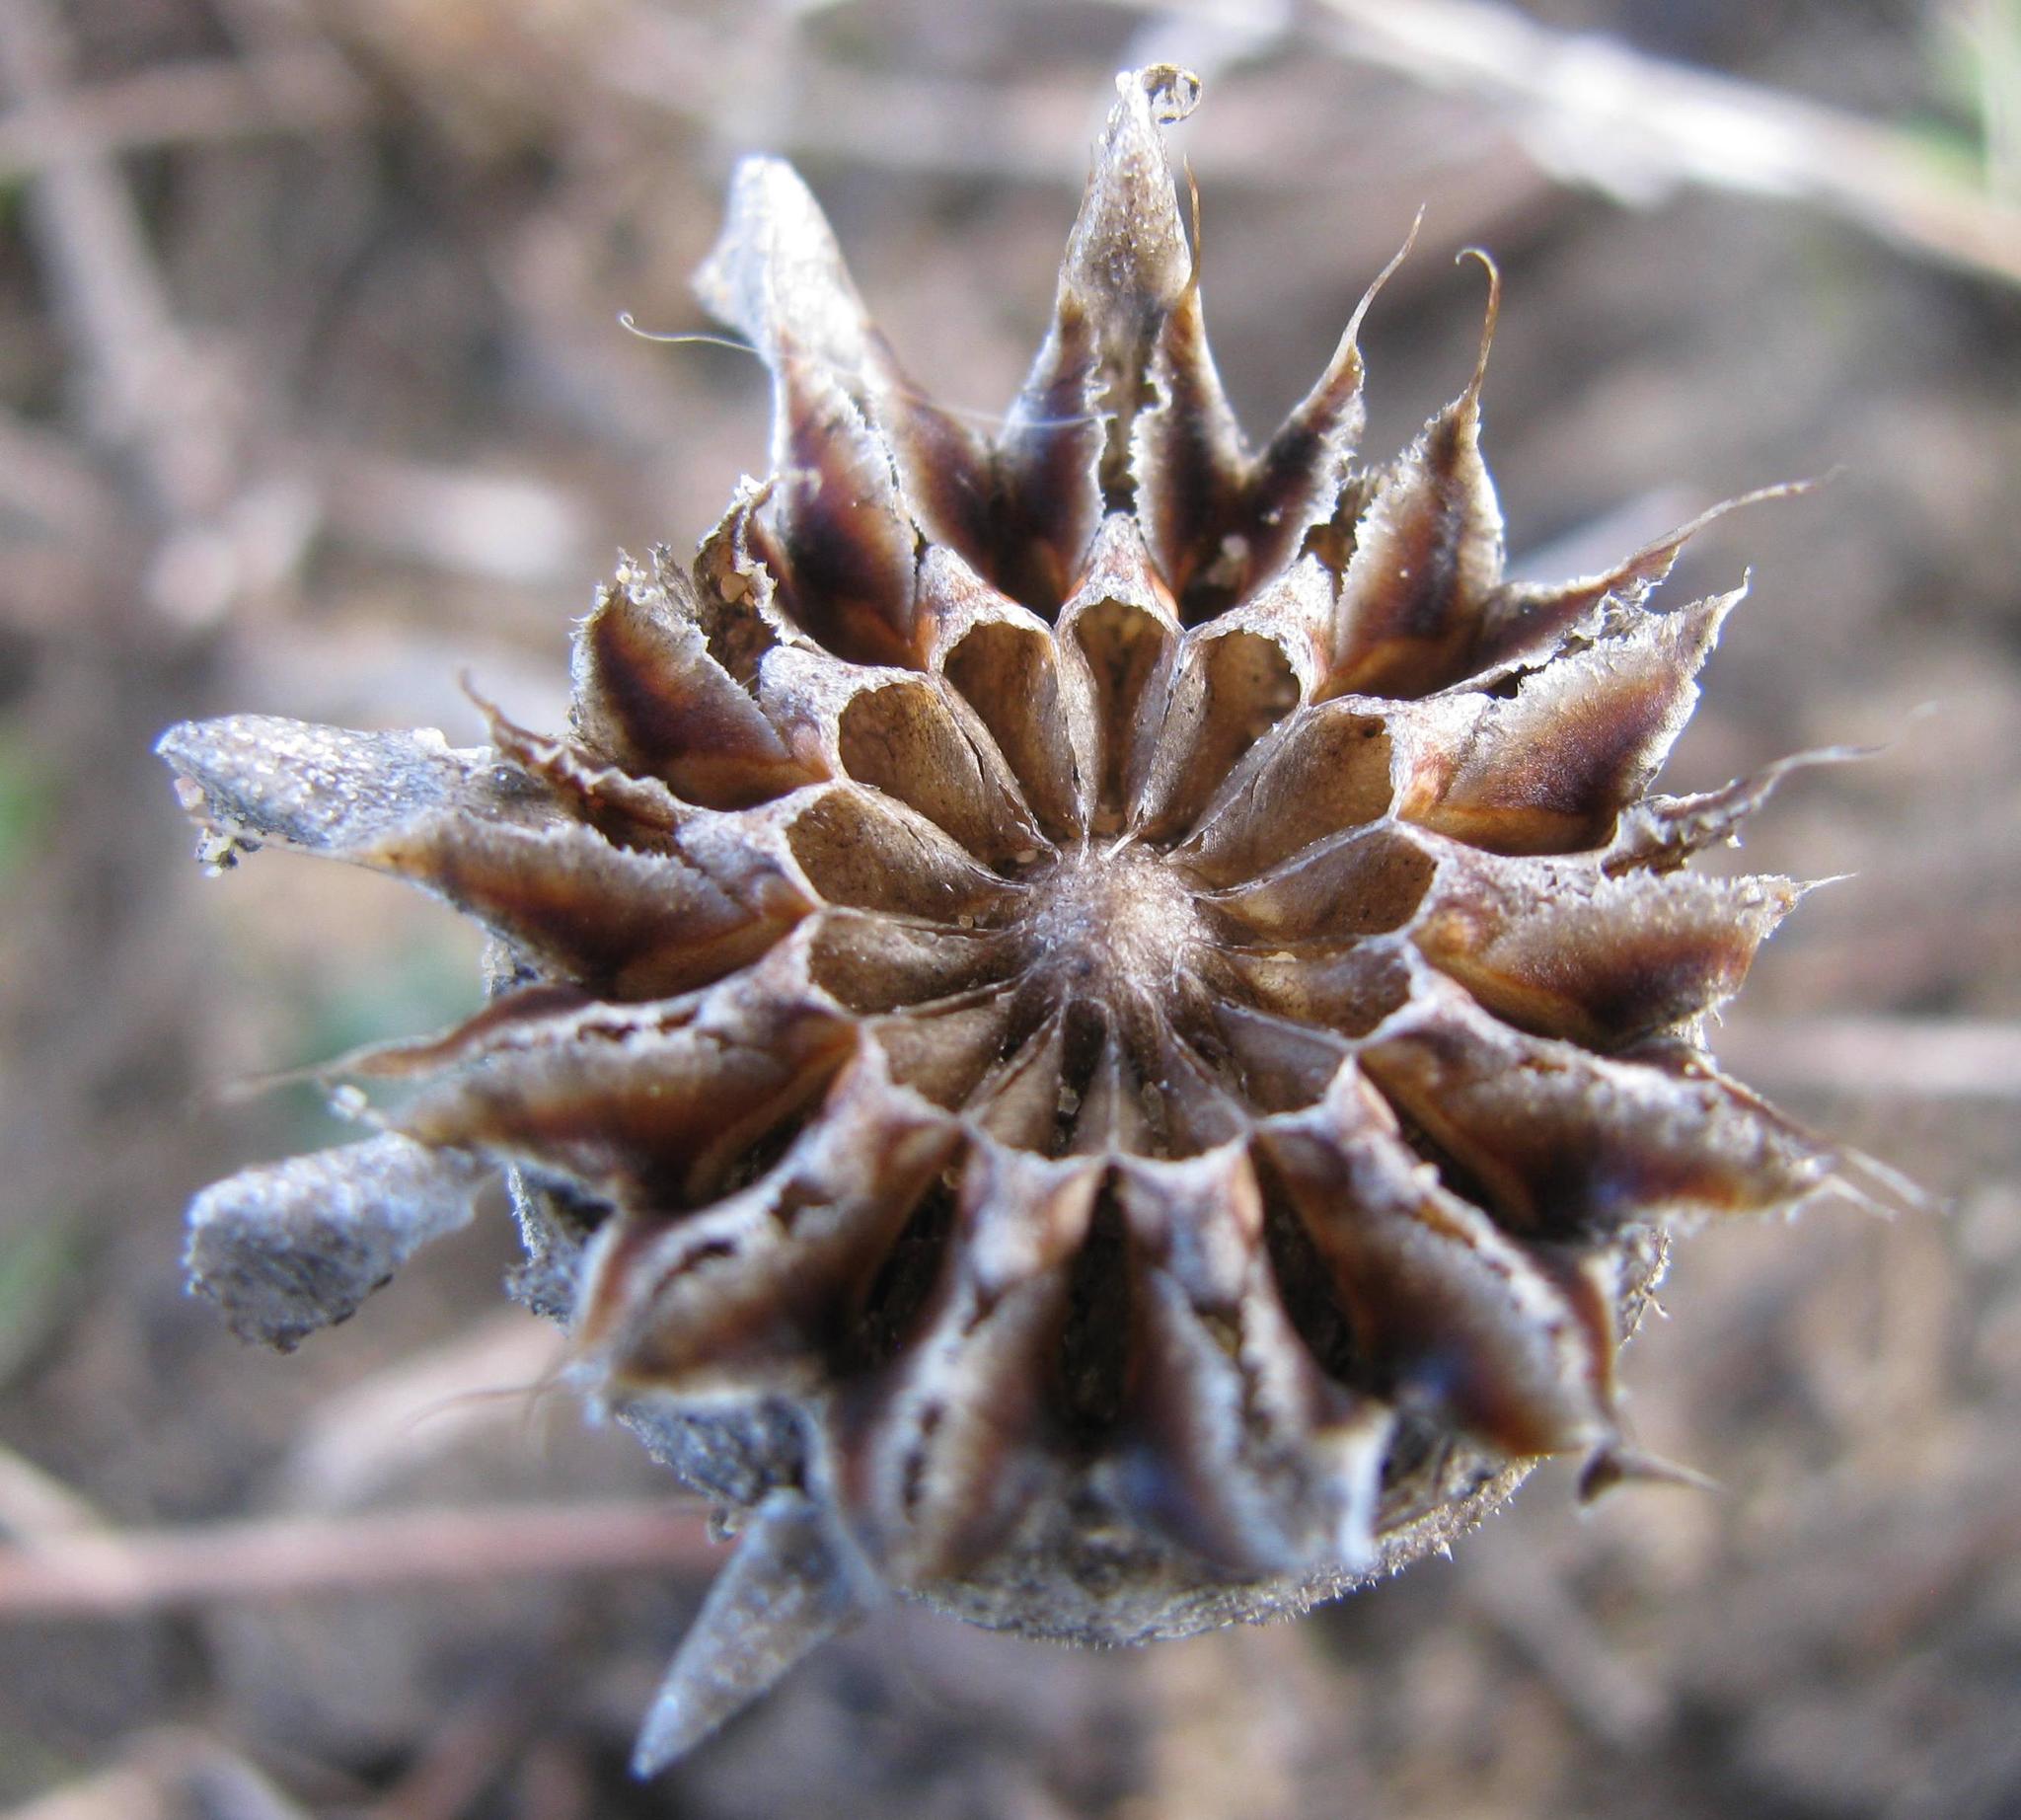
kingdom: Plantae
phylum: Tracheophyta
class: Magnoliopsida
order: Caryophyllales
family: Aizoaceae
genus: Carpanthea
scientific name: Carpanthea pomeridiana
